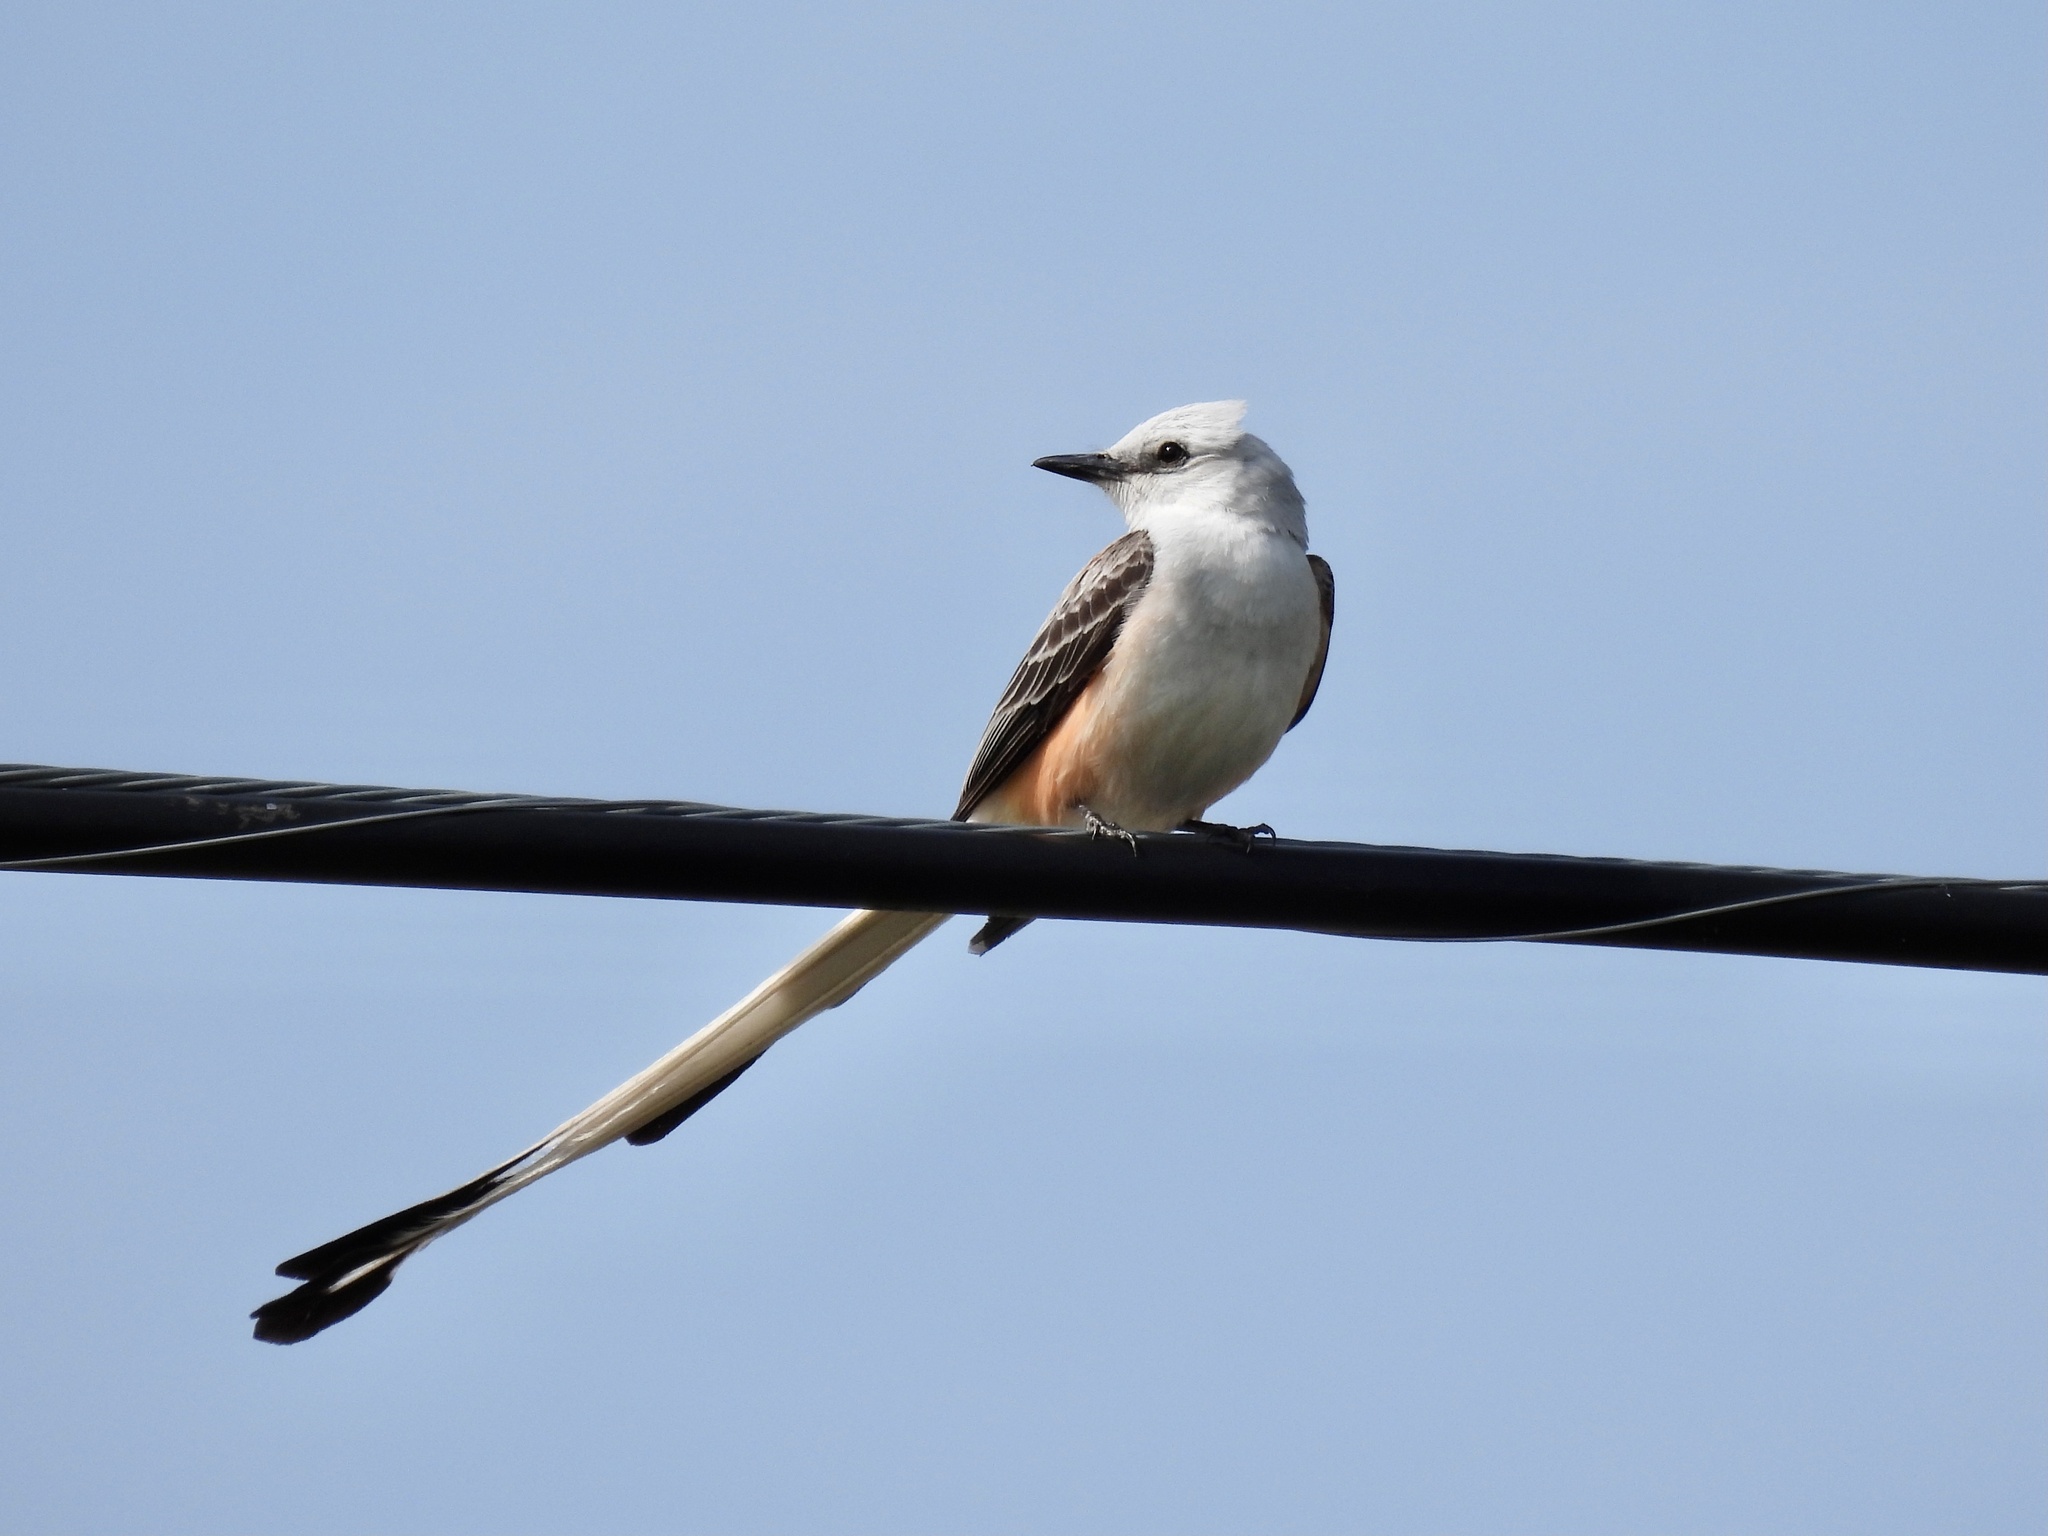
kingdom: Animalia
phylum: Chordata
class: Aves
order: Passeriformes
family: Tyrannidae
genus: Tyrannus
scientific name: Tyrannus forficatus
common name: Scissor-tailed flycatcher
